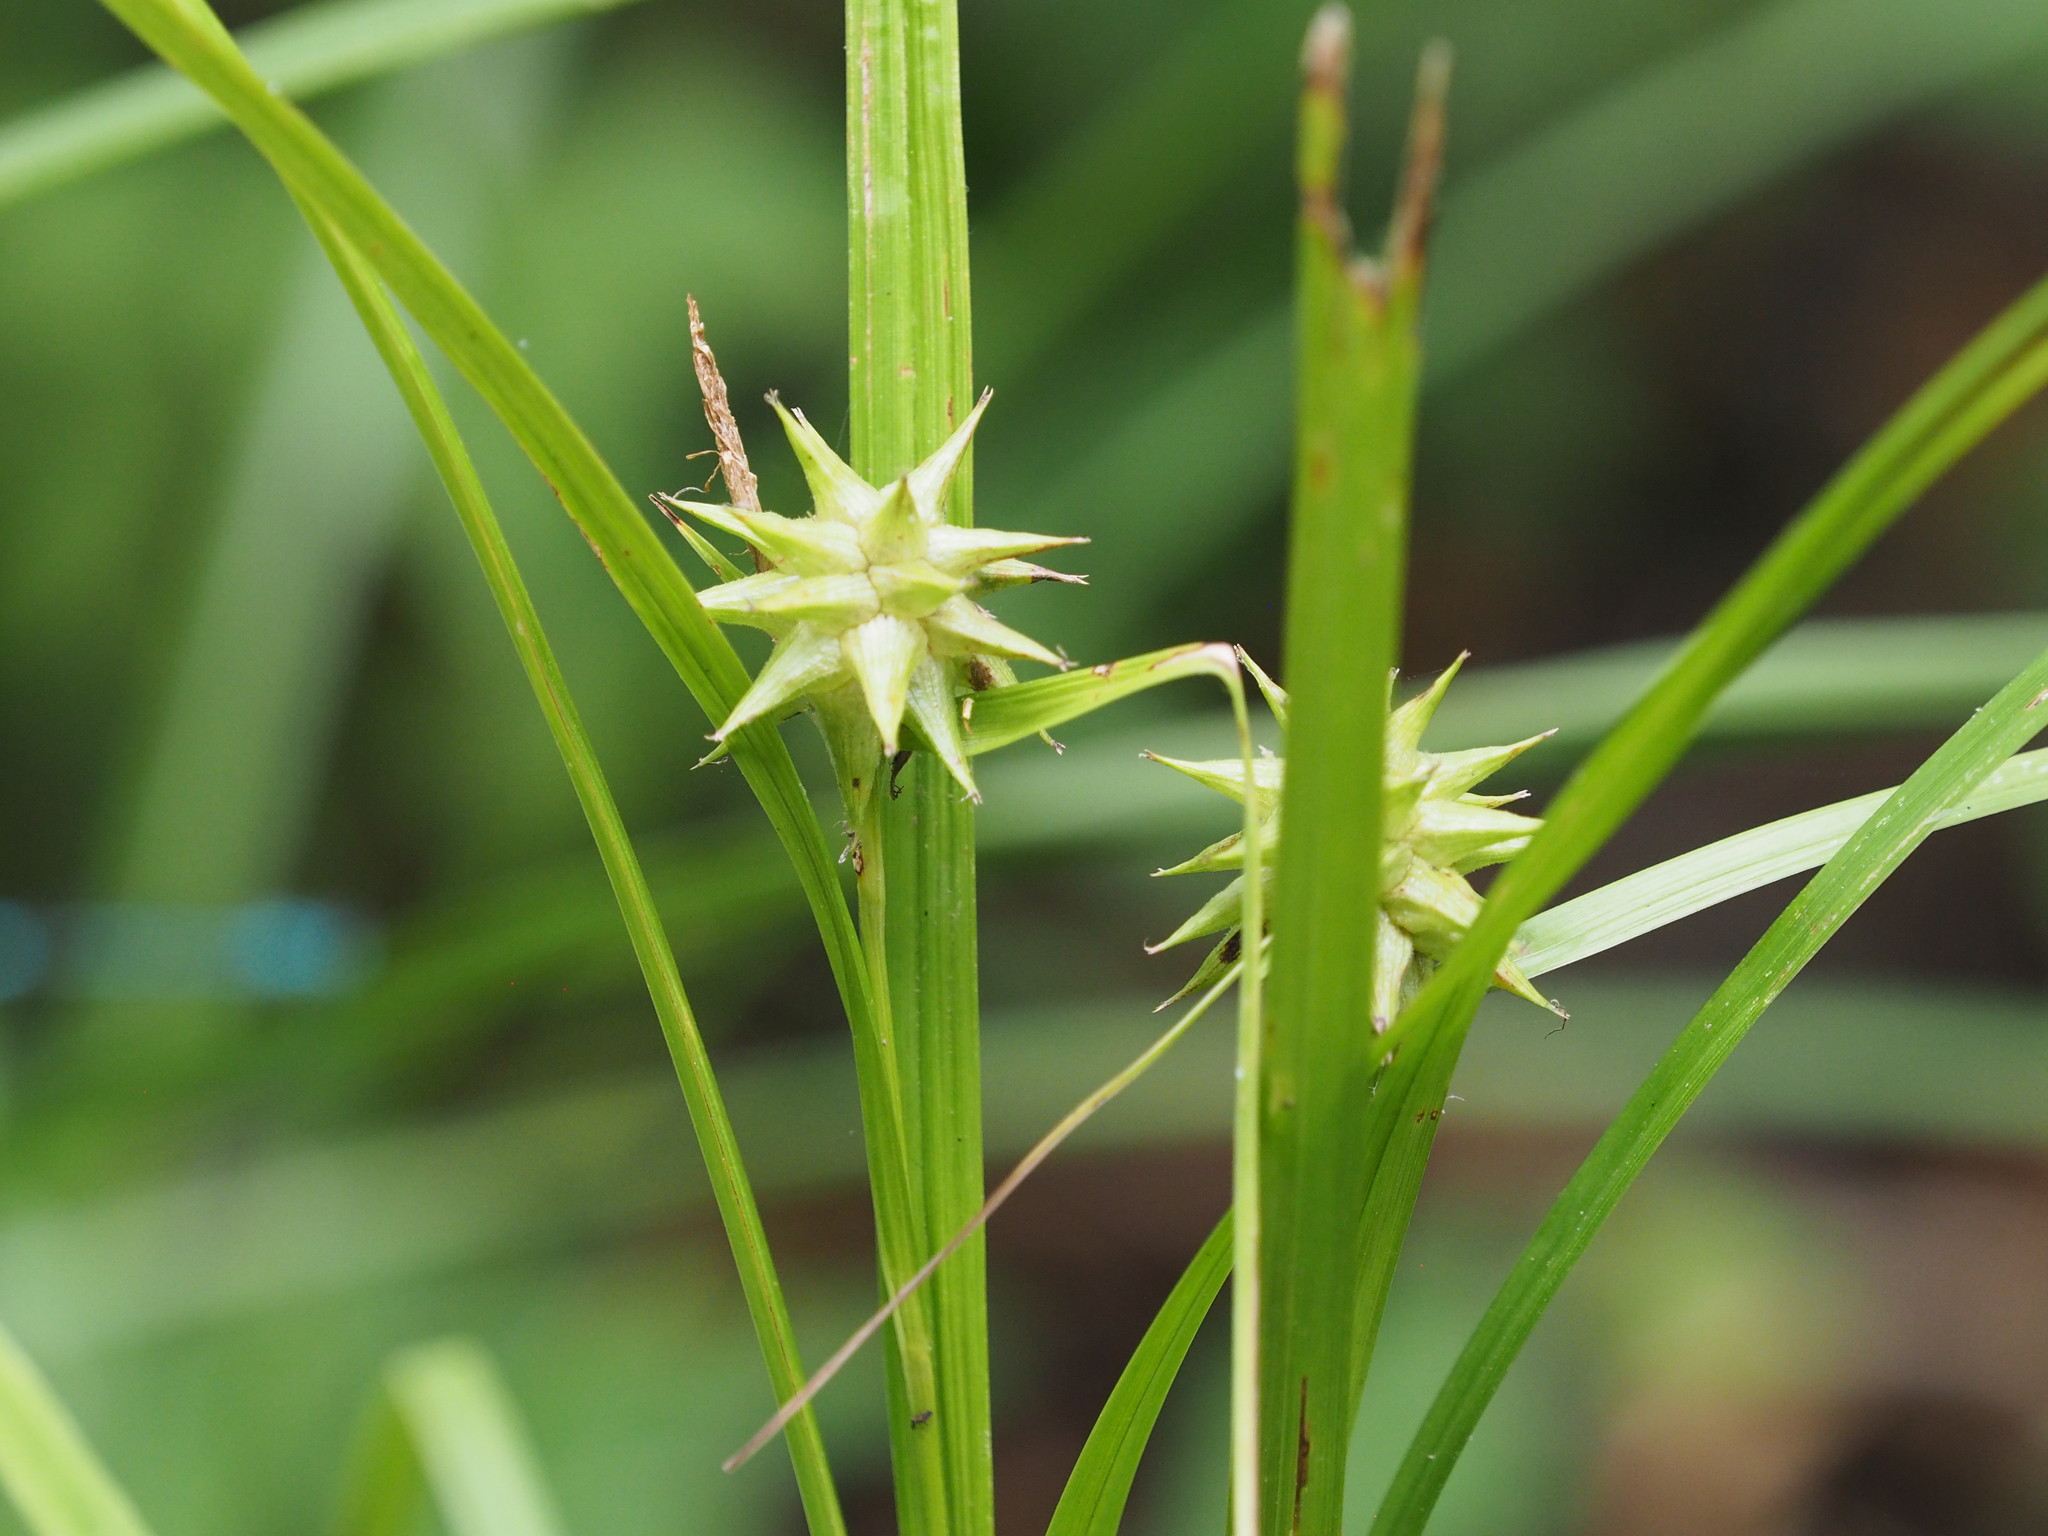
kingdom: Plantae
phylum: Tracheophyta
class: Liliopsida
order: Poales
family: Cyperaceae
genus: Carex
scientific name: Carex grayi
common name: Asa gray's sedge
